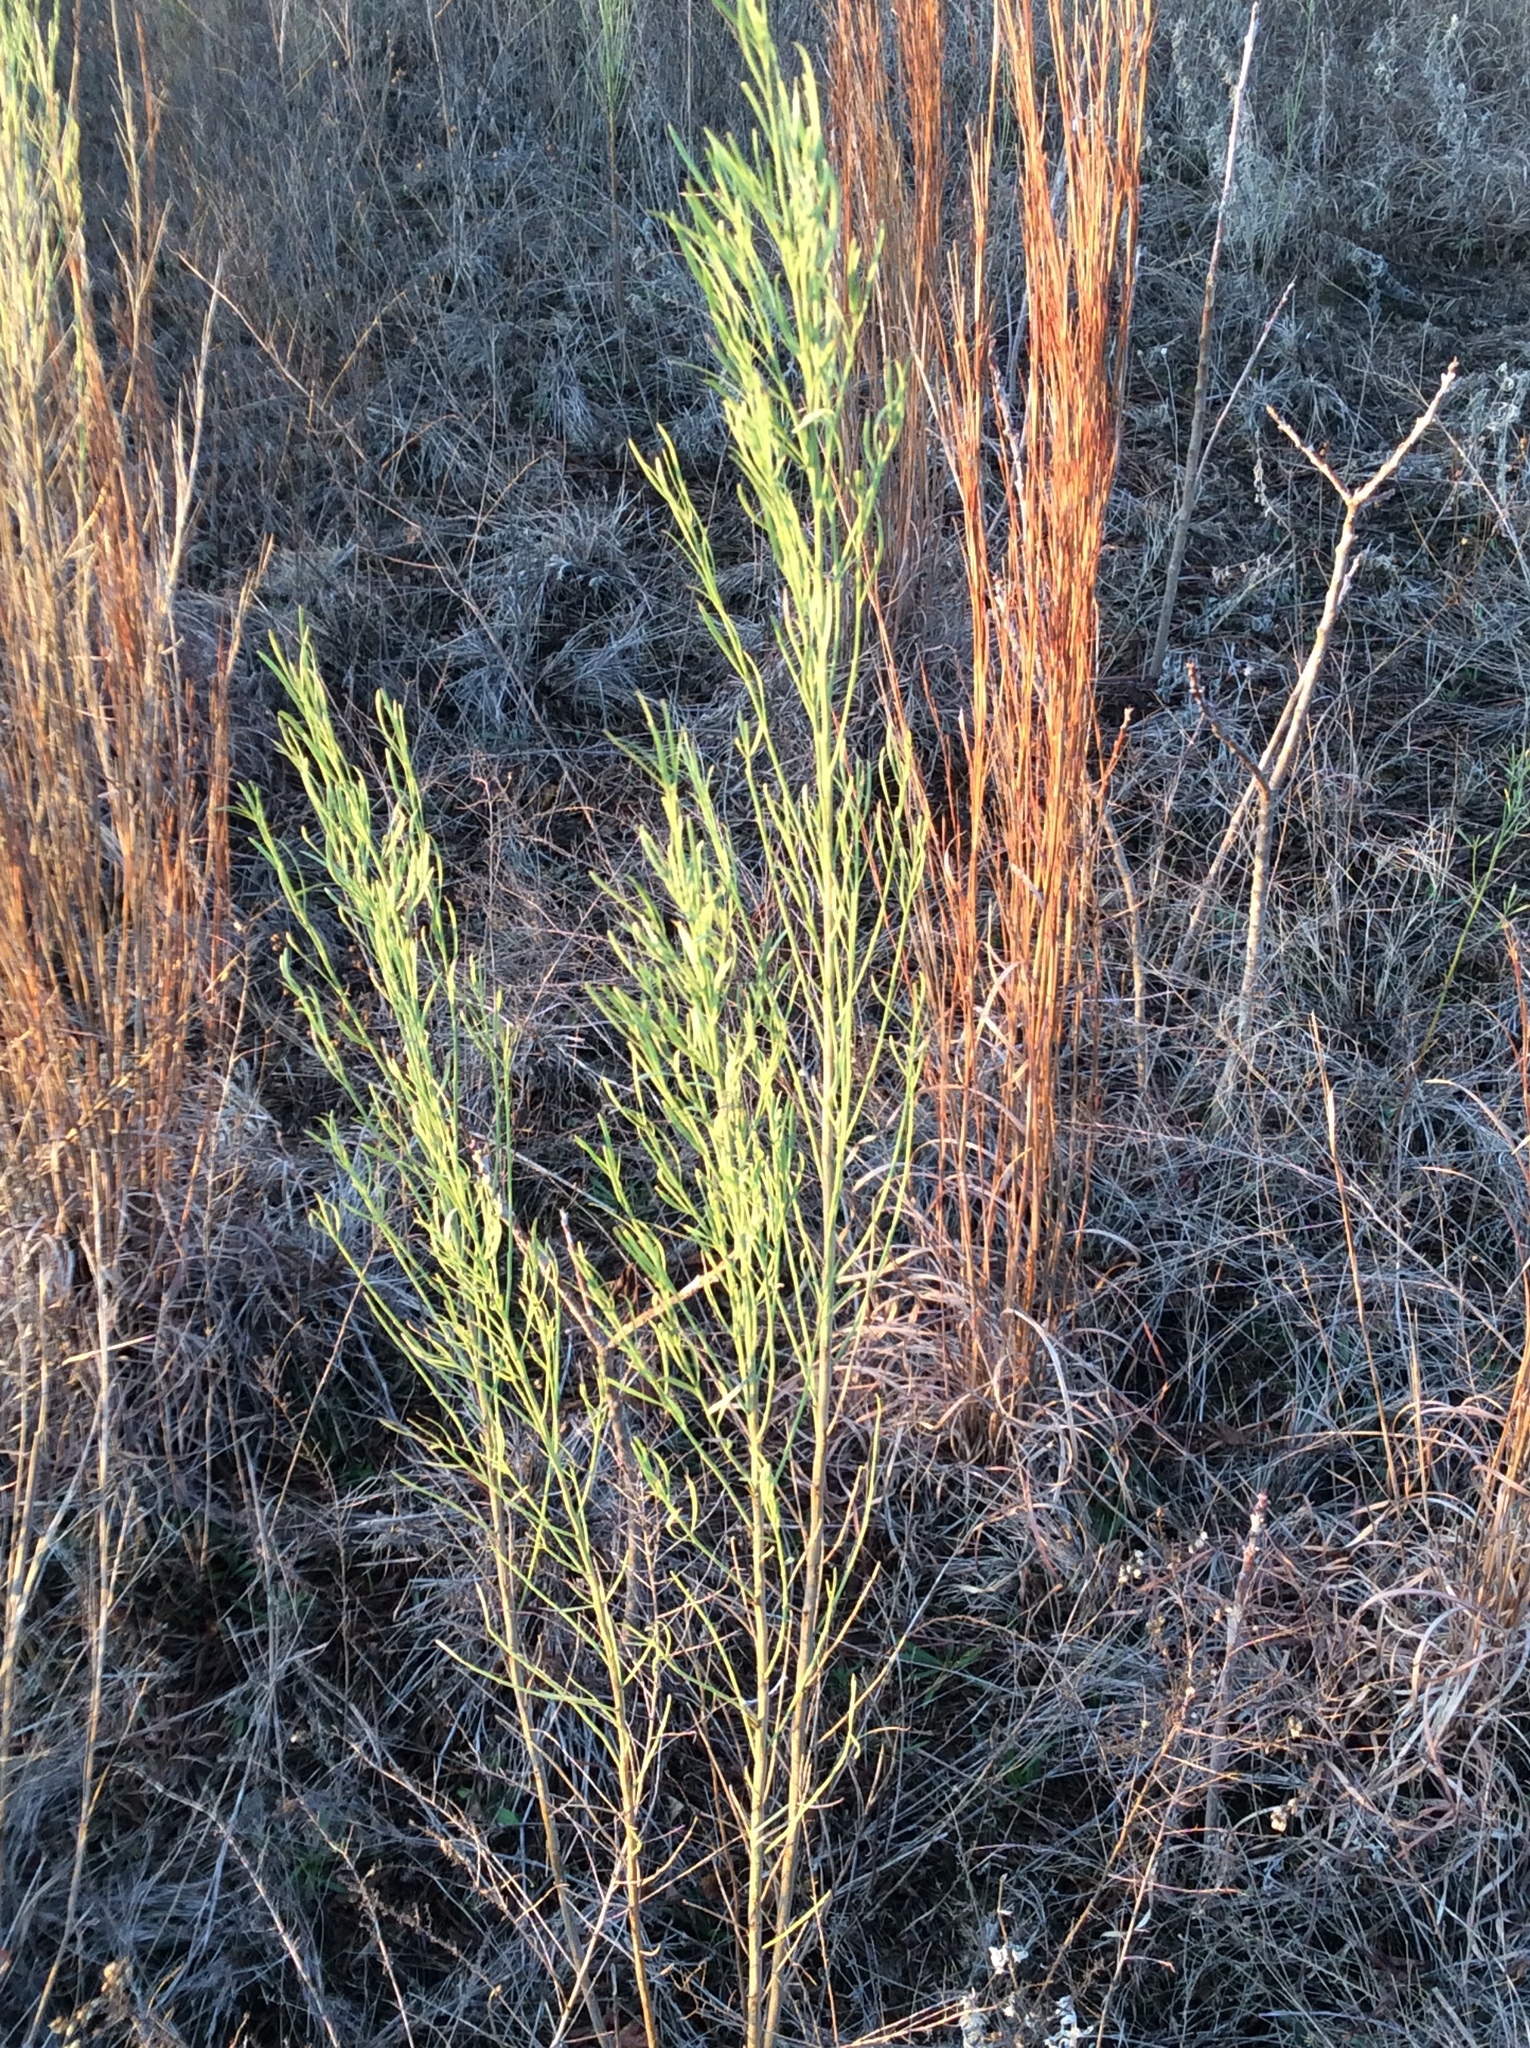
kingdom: Plantae
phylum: Tracheophyta
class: Magnoliopsida
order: Asterales
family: Asteraceae
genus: Baccharis
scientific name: Baccharis neglecta
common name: Roosevelt-weed
